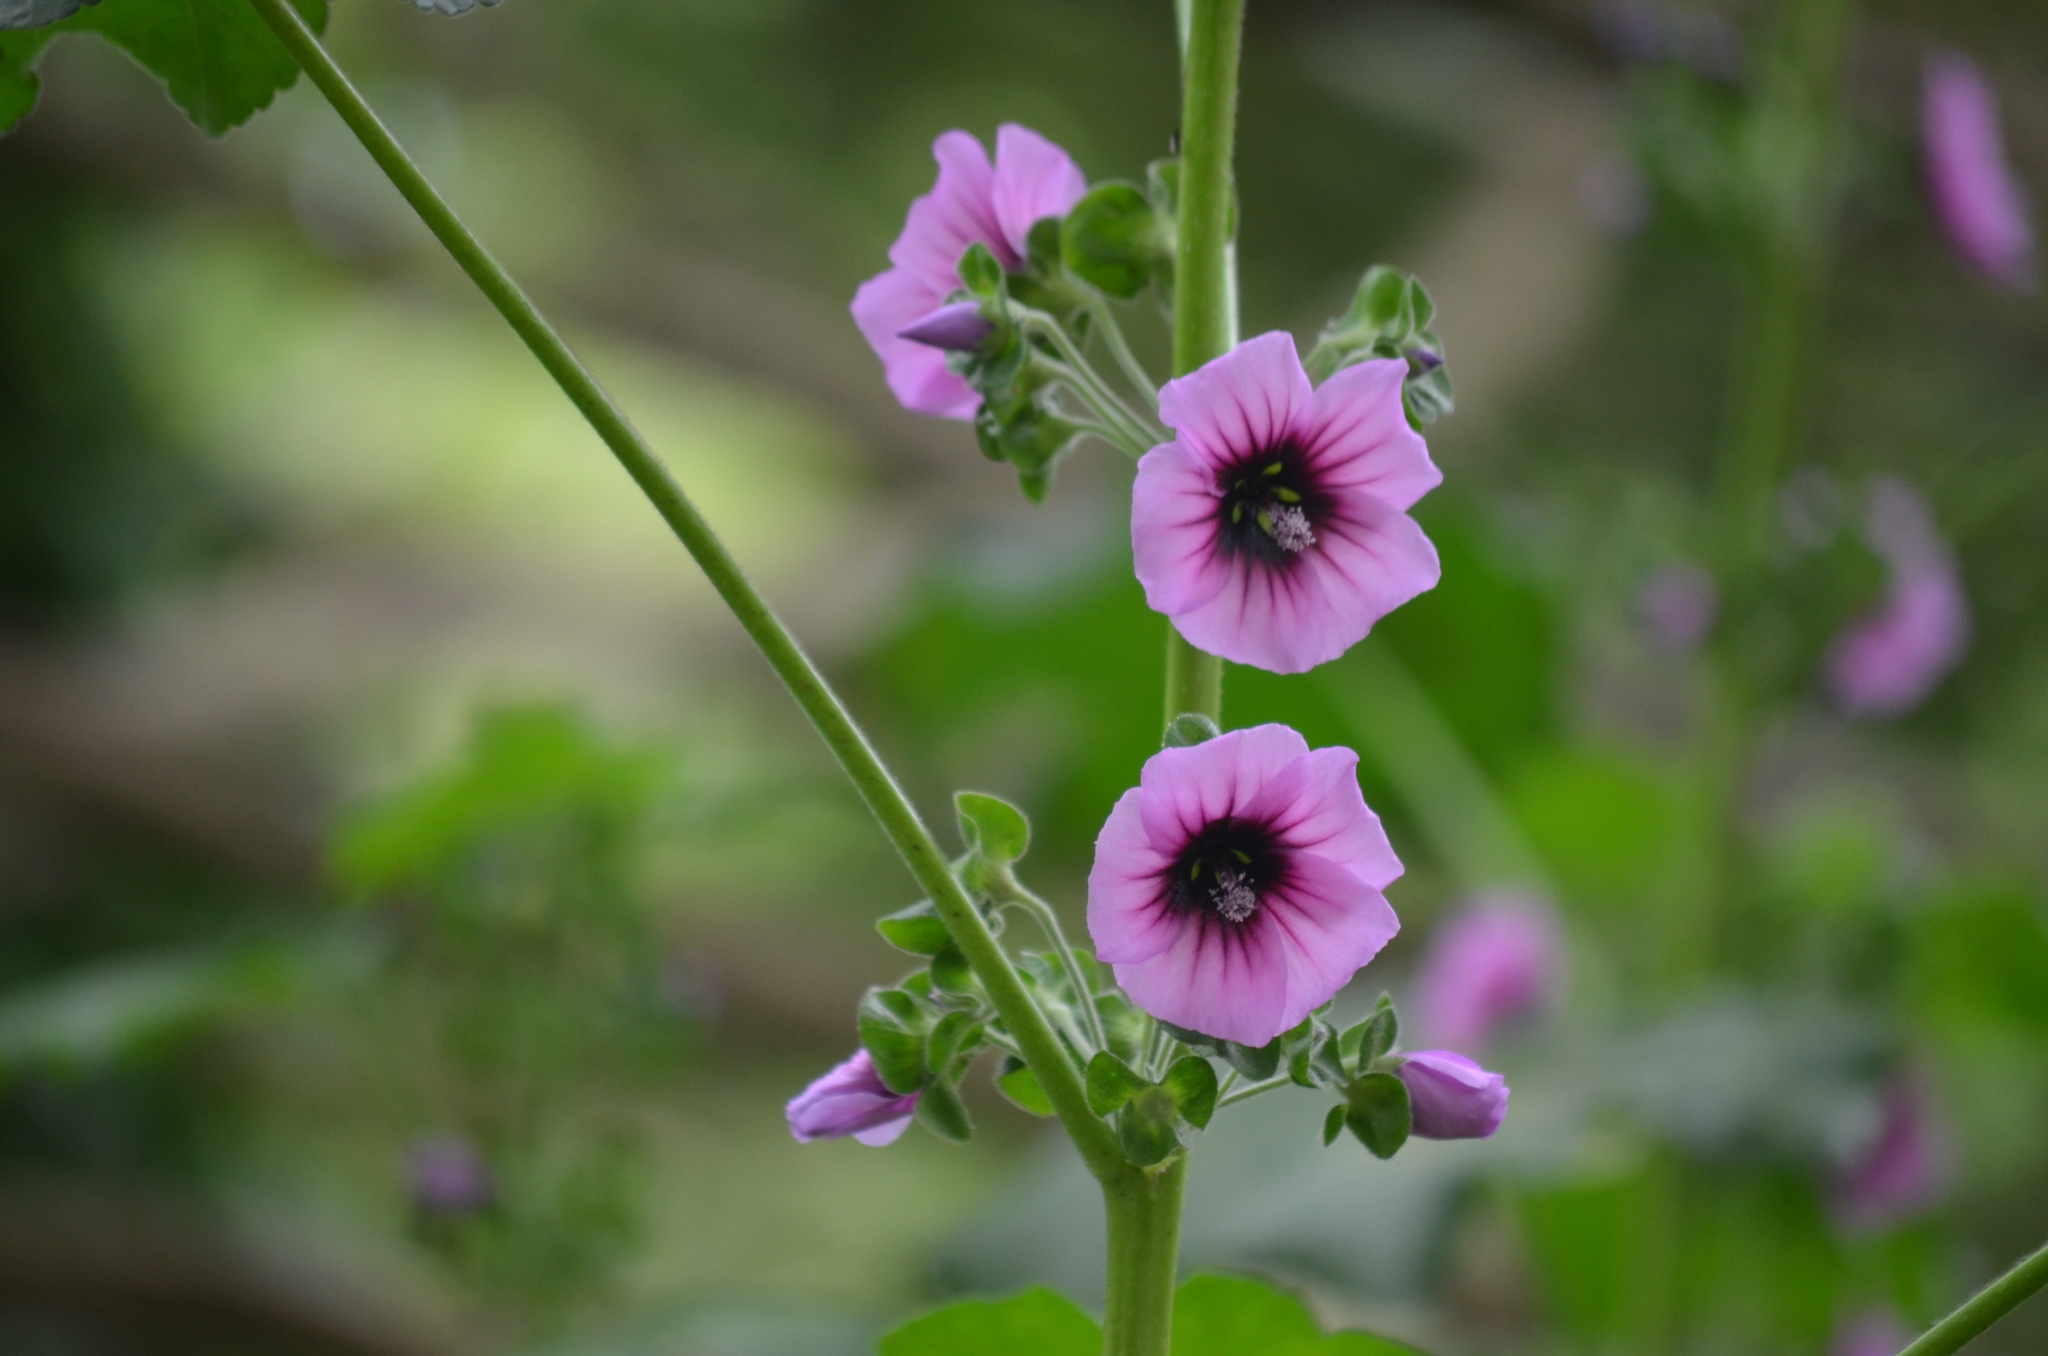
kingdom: Plantae
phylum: Tracheophyta
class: Magnoliopsida
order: Malvales
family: Malvaceae
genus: Malva
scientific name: Malva arborea
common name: Tree mallow
